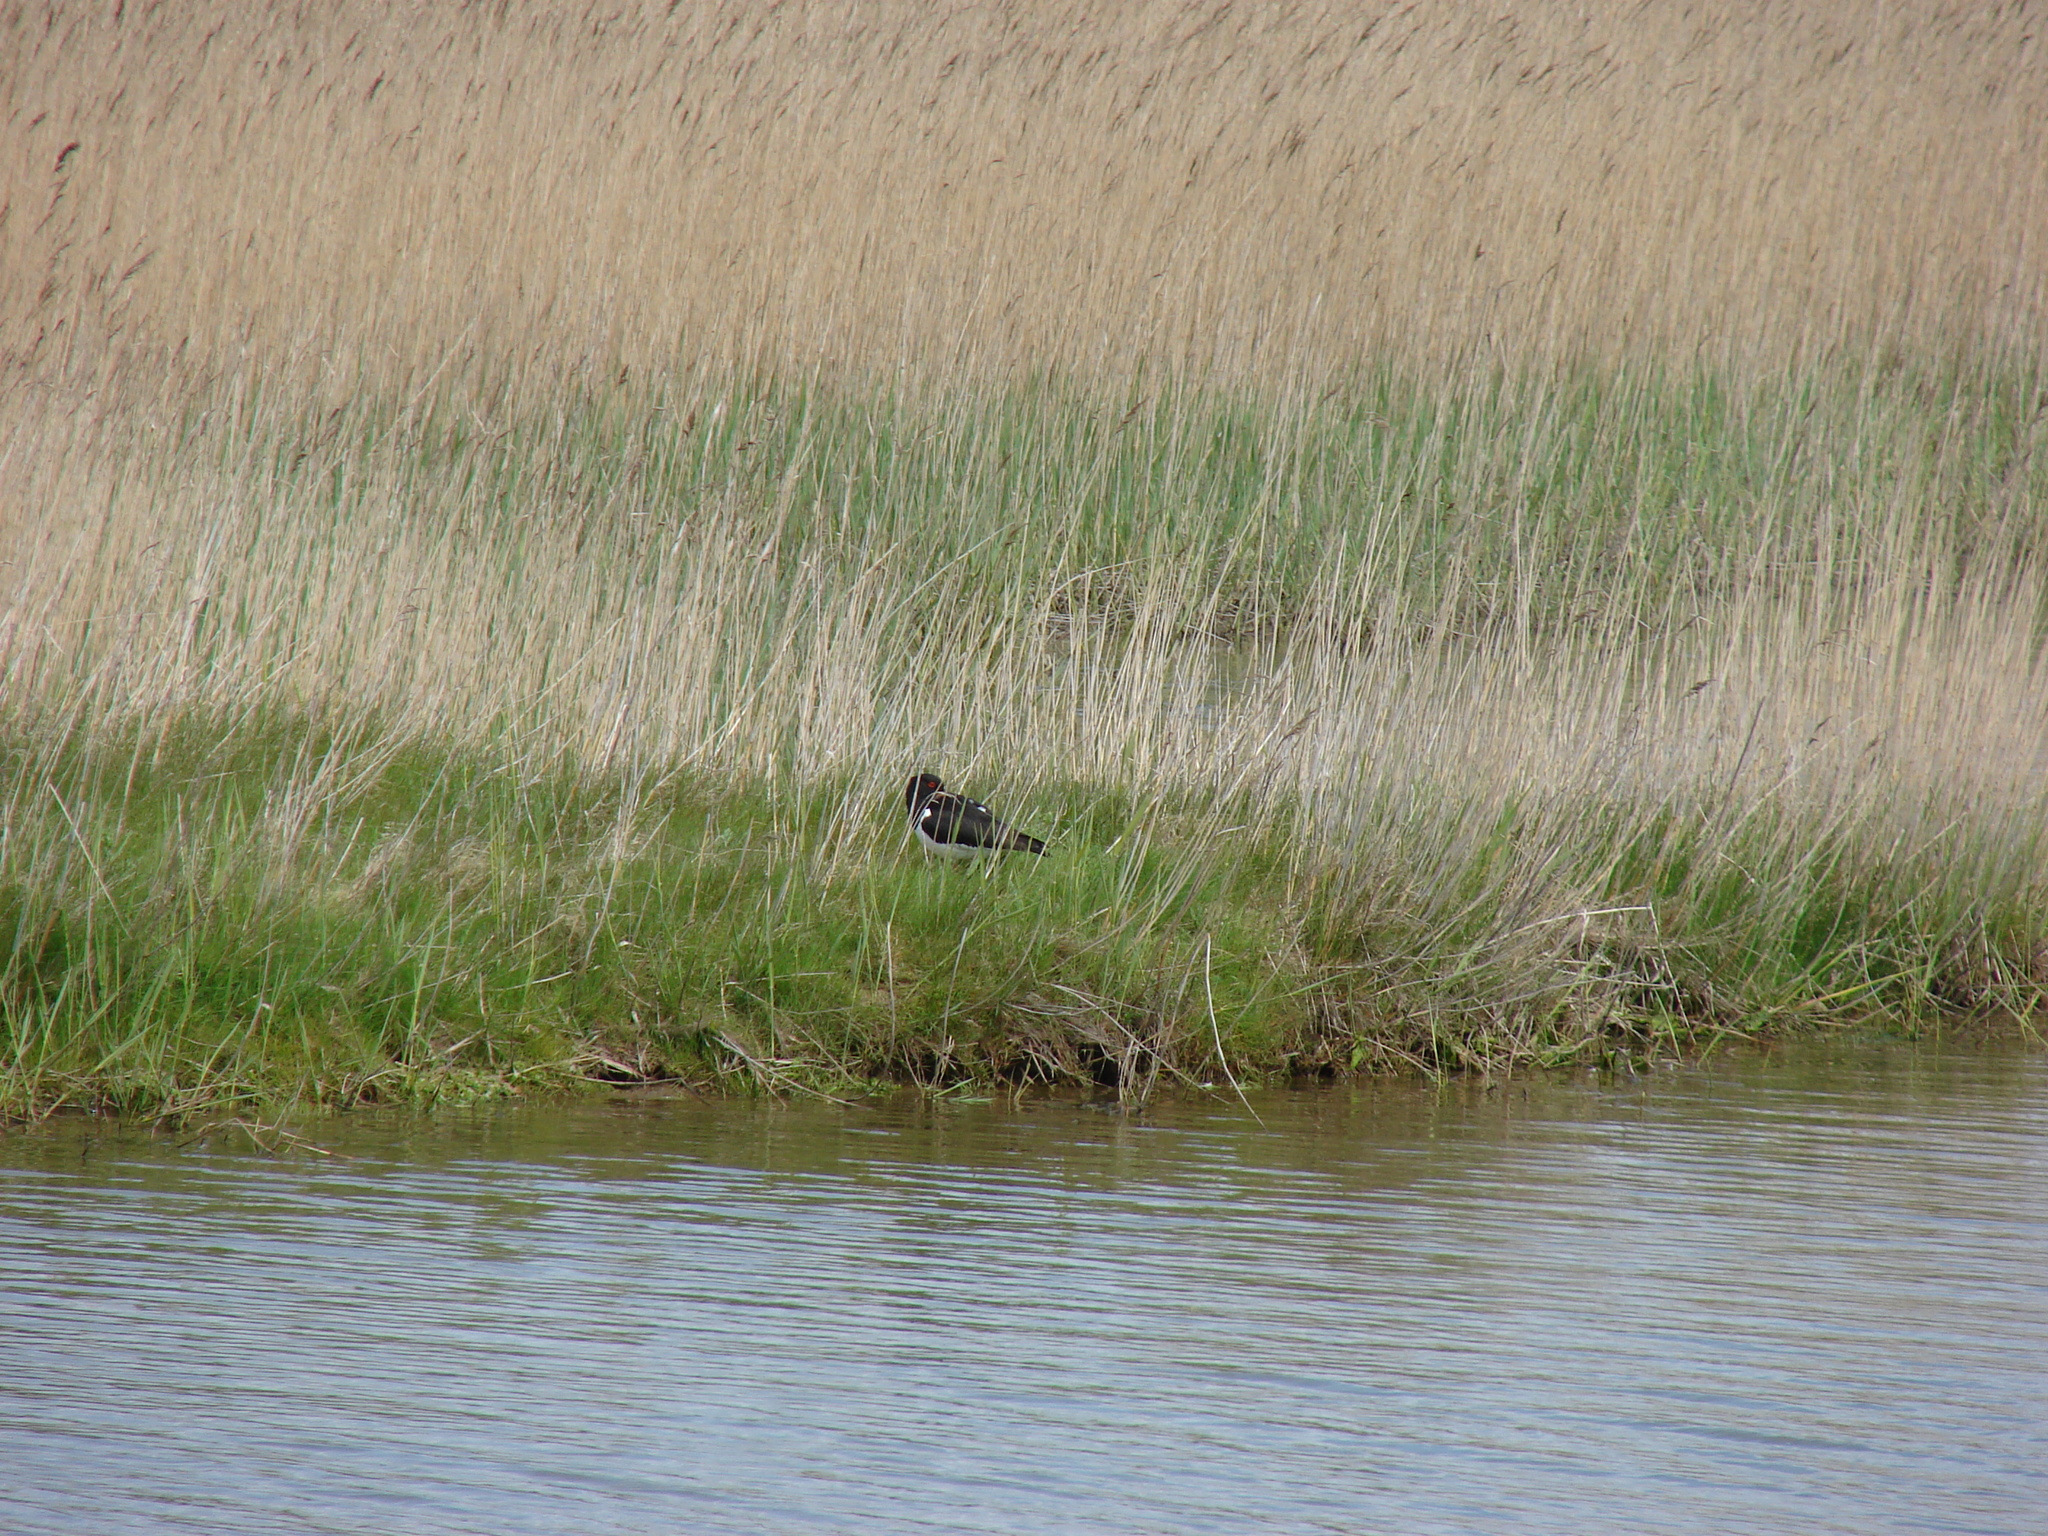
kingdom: Animalia
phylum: Chordata
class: Aves
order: Charadriiformes
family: Haematopodidae
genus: Haematopus
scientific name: Haematopus ostralegus
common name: Eurasian oystercatcher
